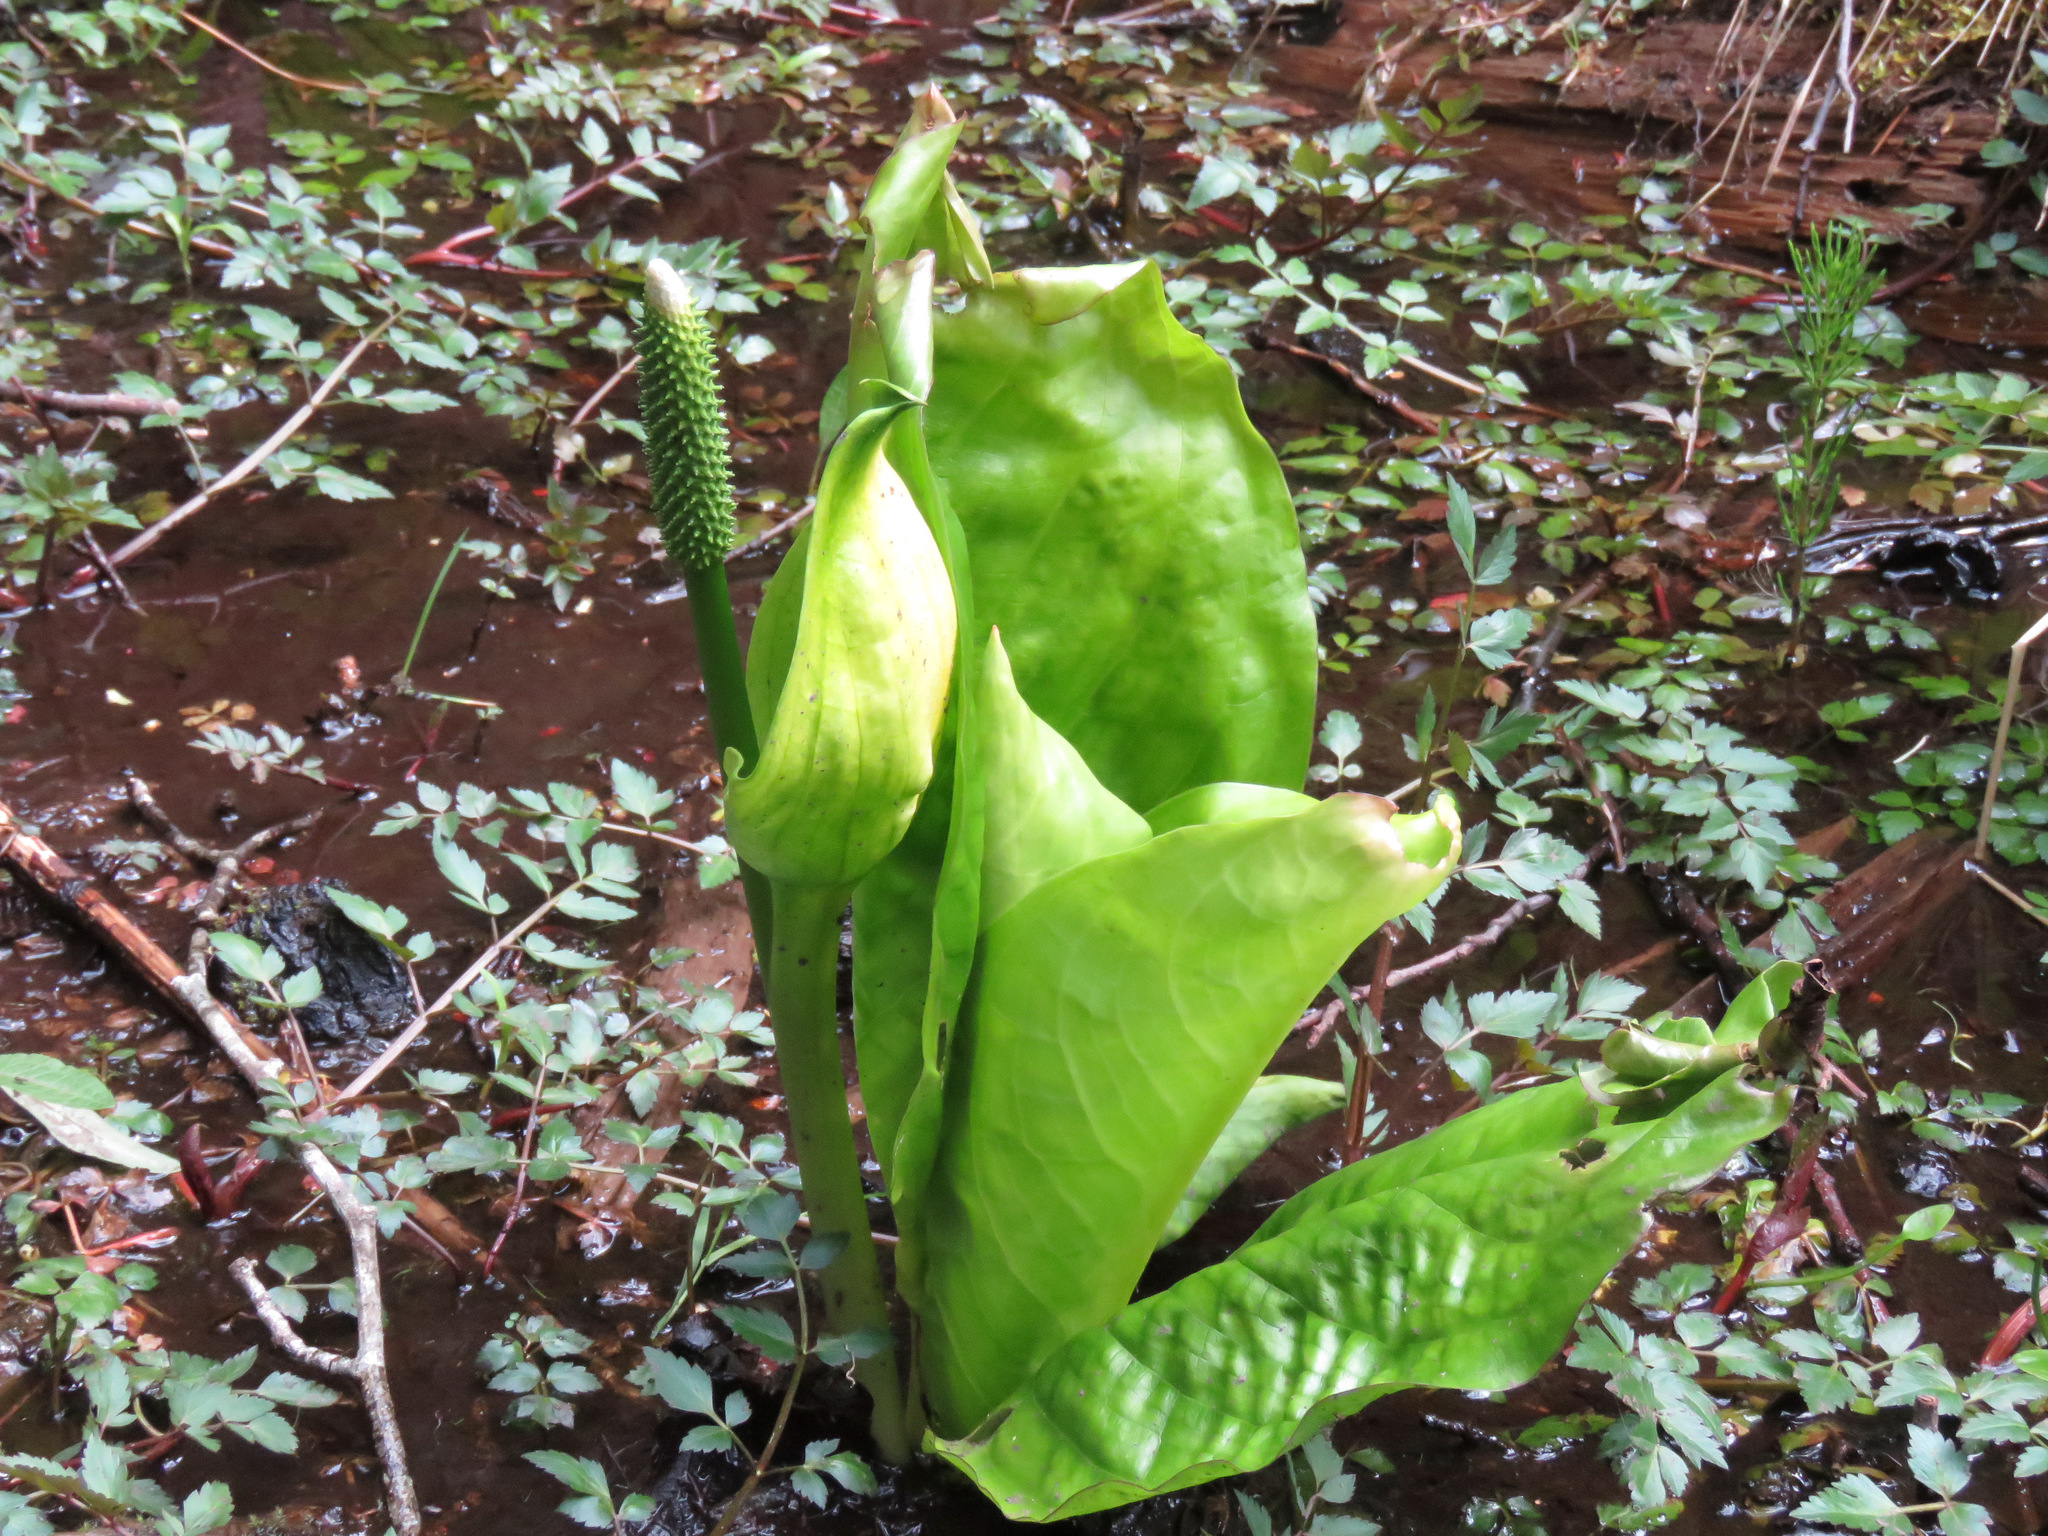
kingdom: Plantae
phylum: Tracheophyta
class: Liliopsida
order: Alismatales
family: Araceae
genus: Lysichiton
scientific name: Lysichiton americanus
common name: American skunk cabbage
